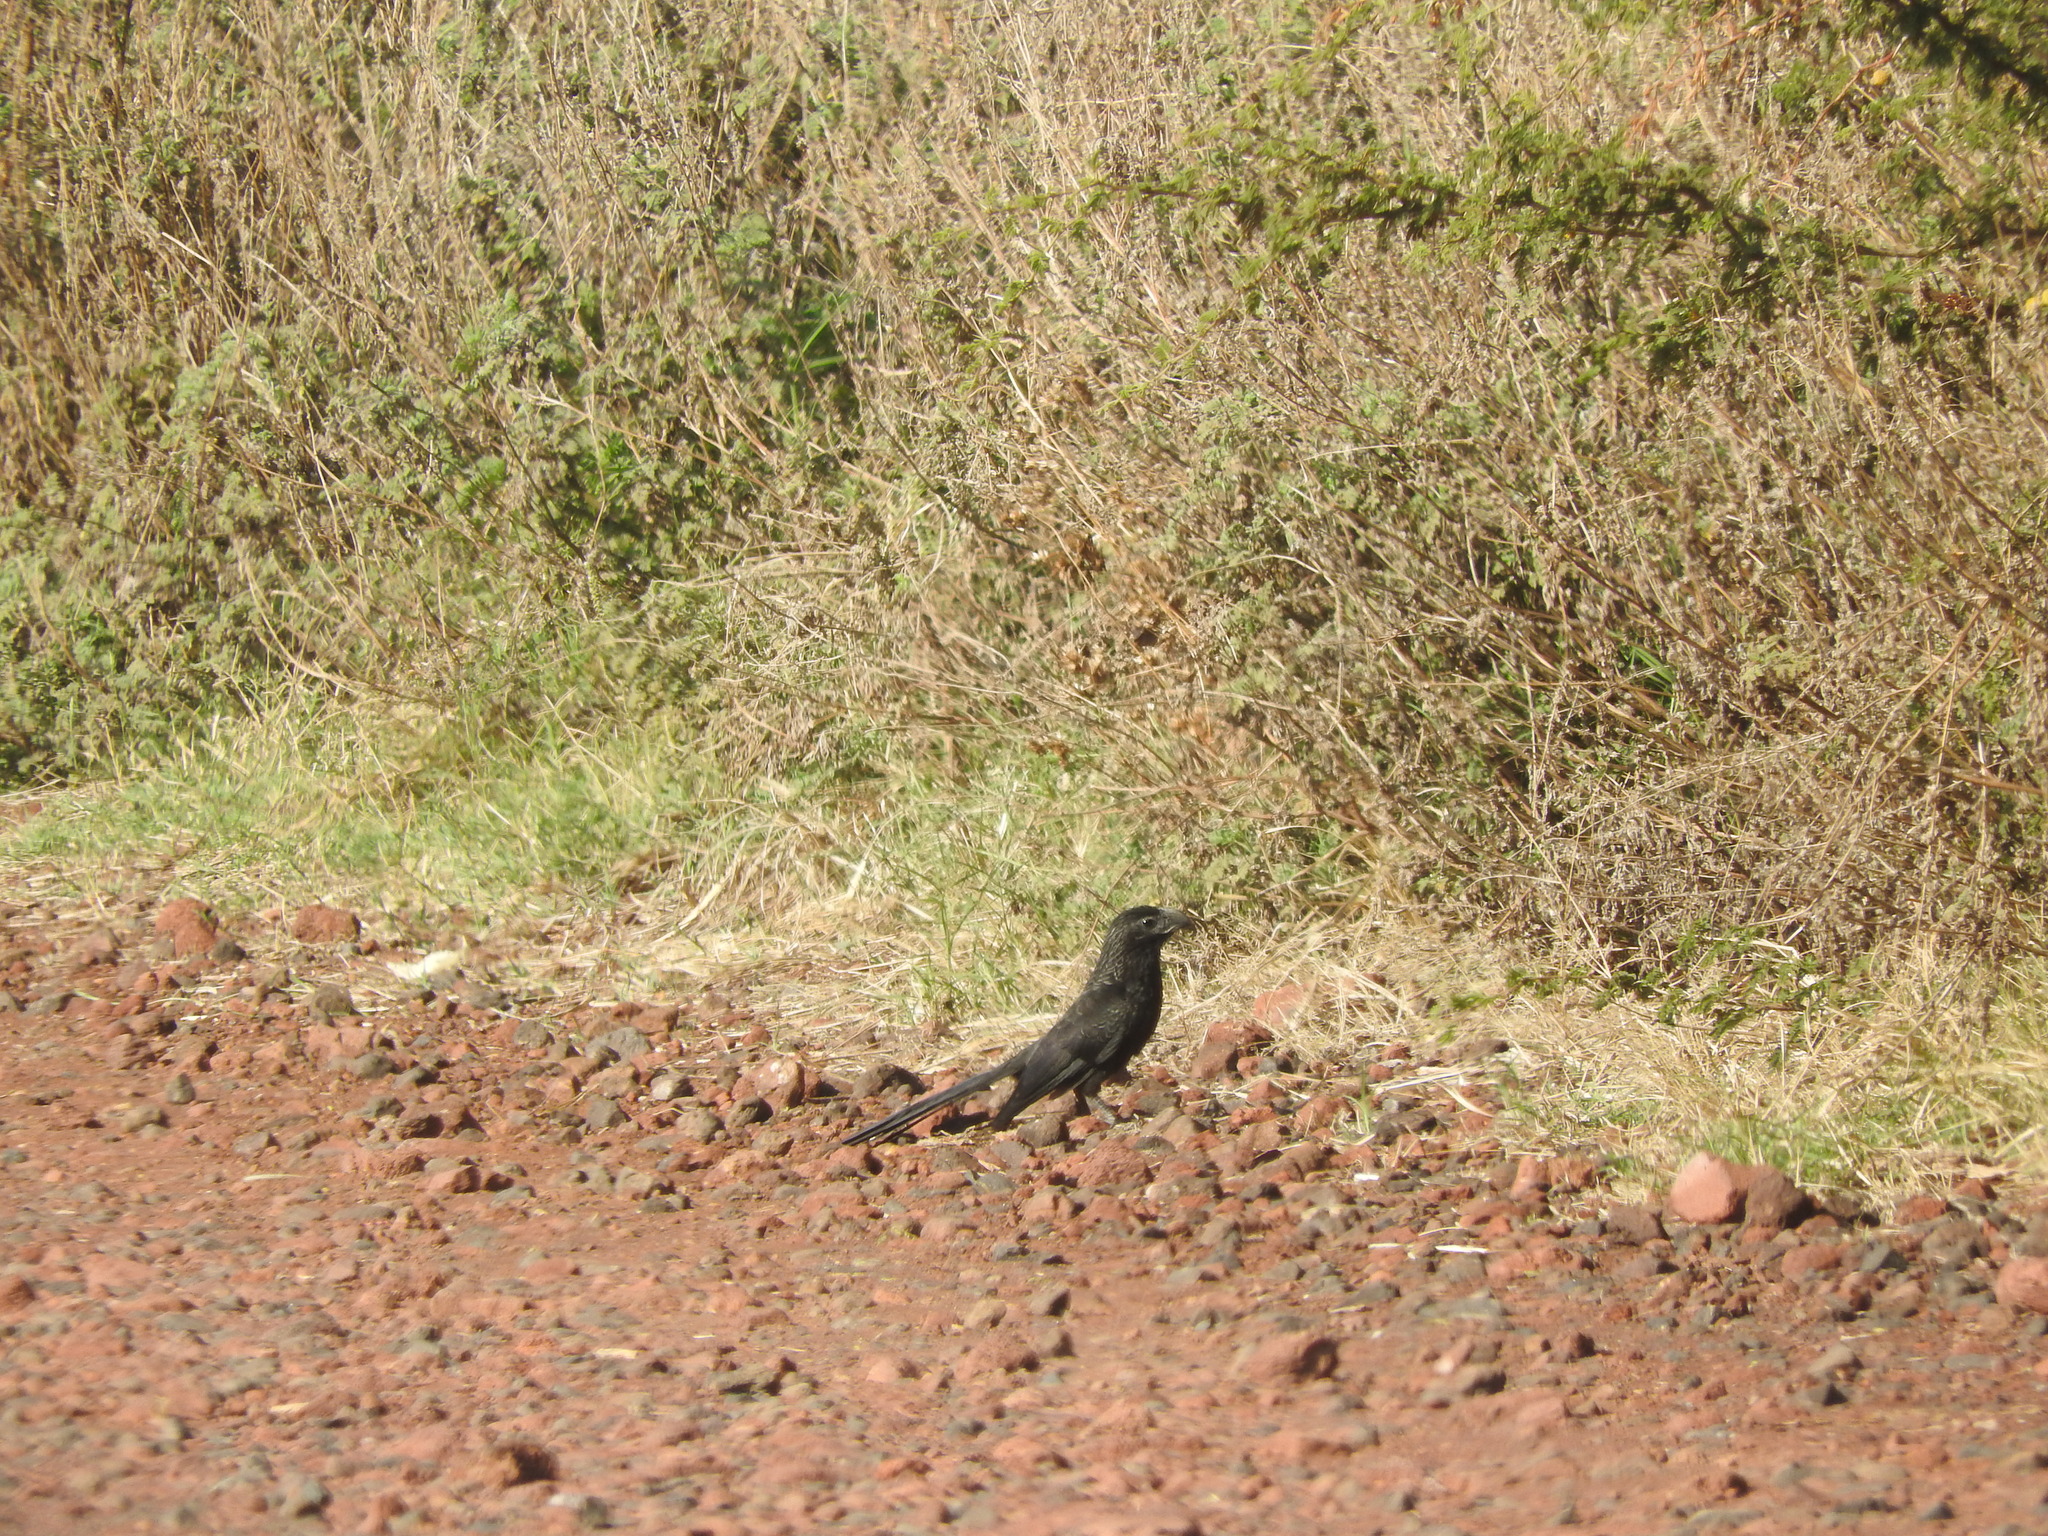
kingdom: Animalia
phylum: Chordata
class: Aves
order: Cuculiformes
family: Cuculidae
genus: Crotophaga
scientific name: Crotophaga sulcirostris
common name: Groove-billed ani
